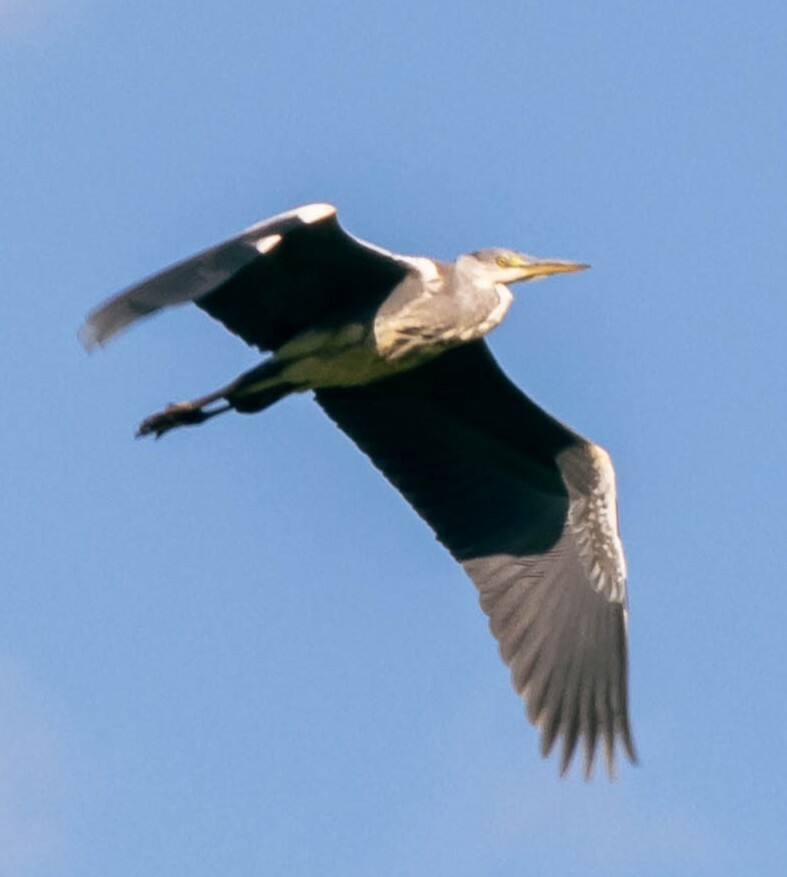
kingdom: Animalia
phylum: Chordata
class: Aves
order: Pelecaniformes
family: Ardeidae
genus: Ardea
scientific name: Ardea cinerea
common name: Grey heron
